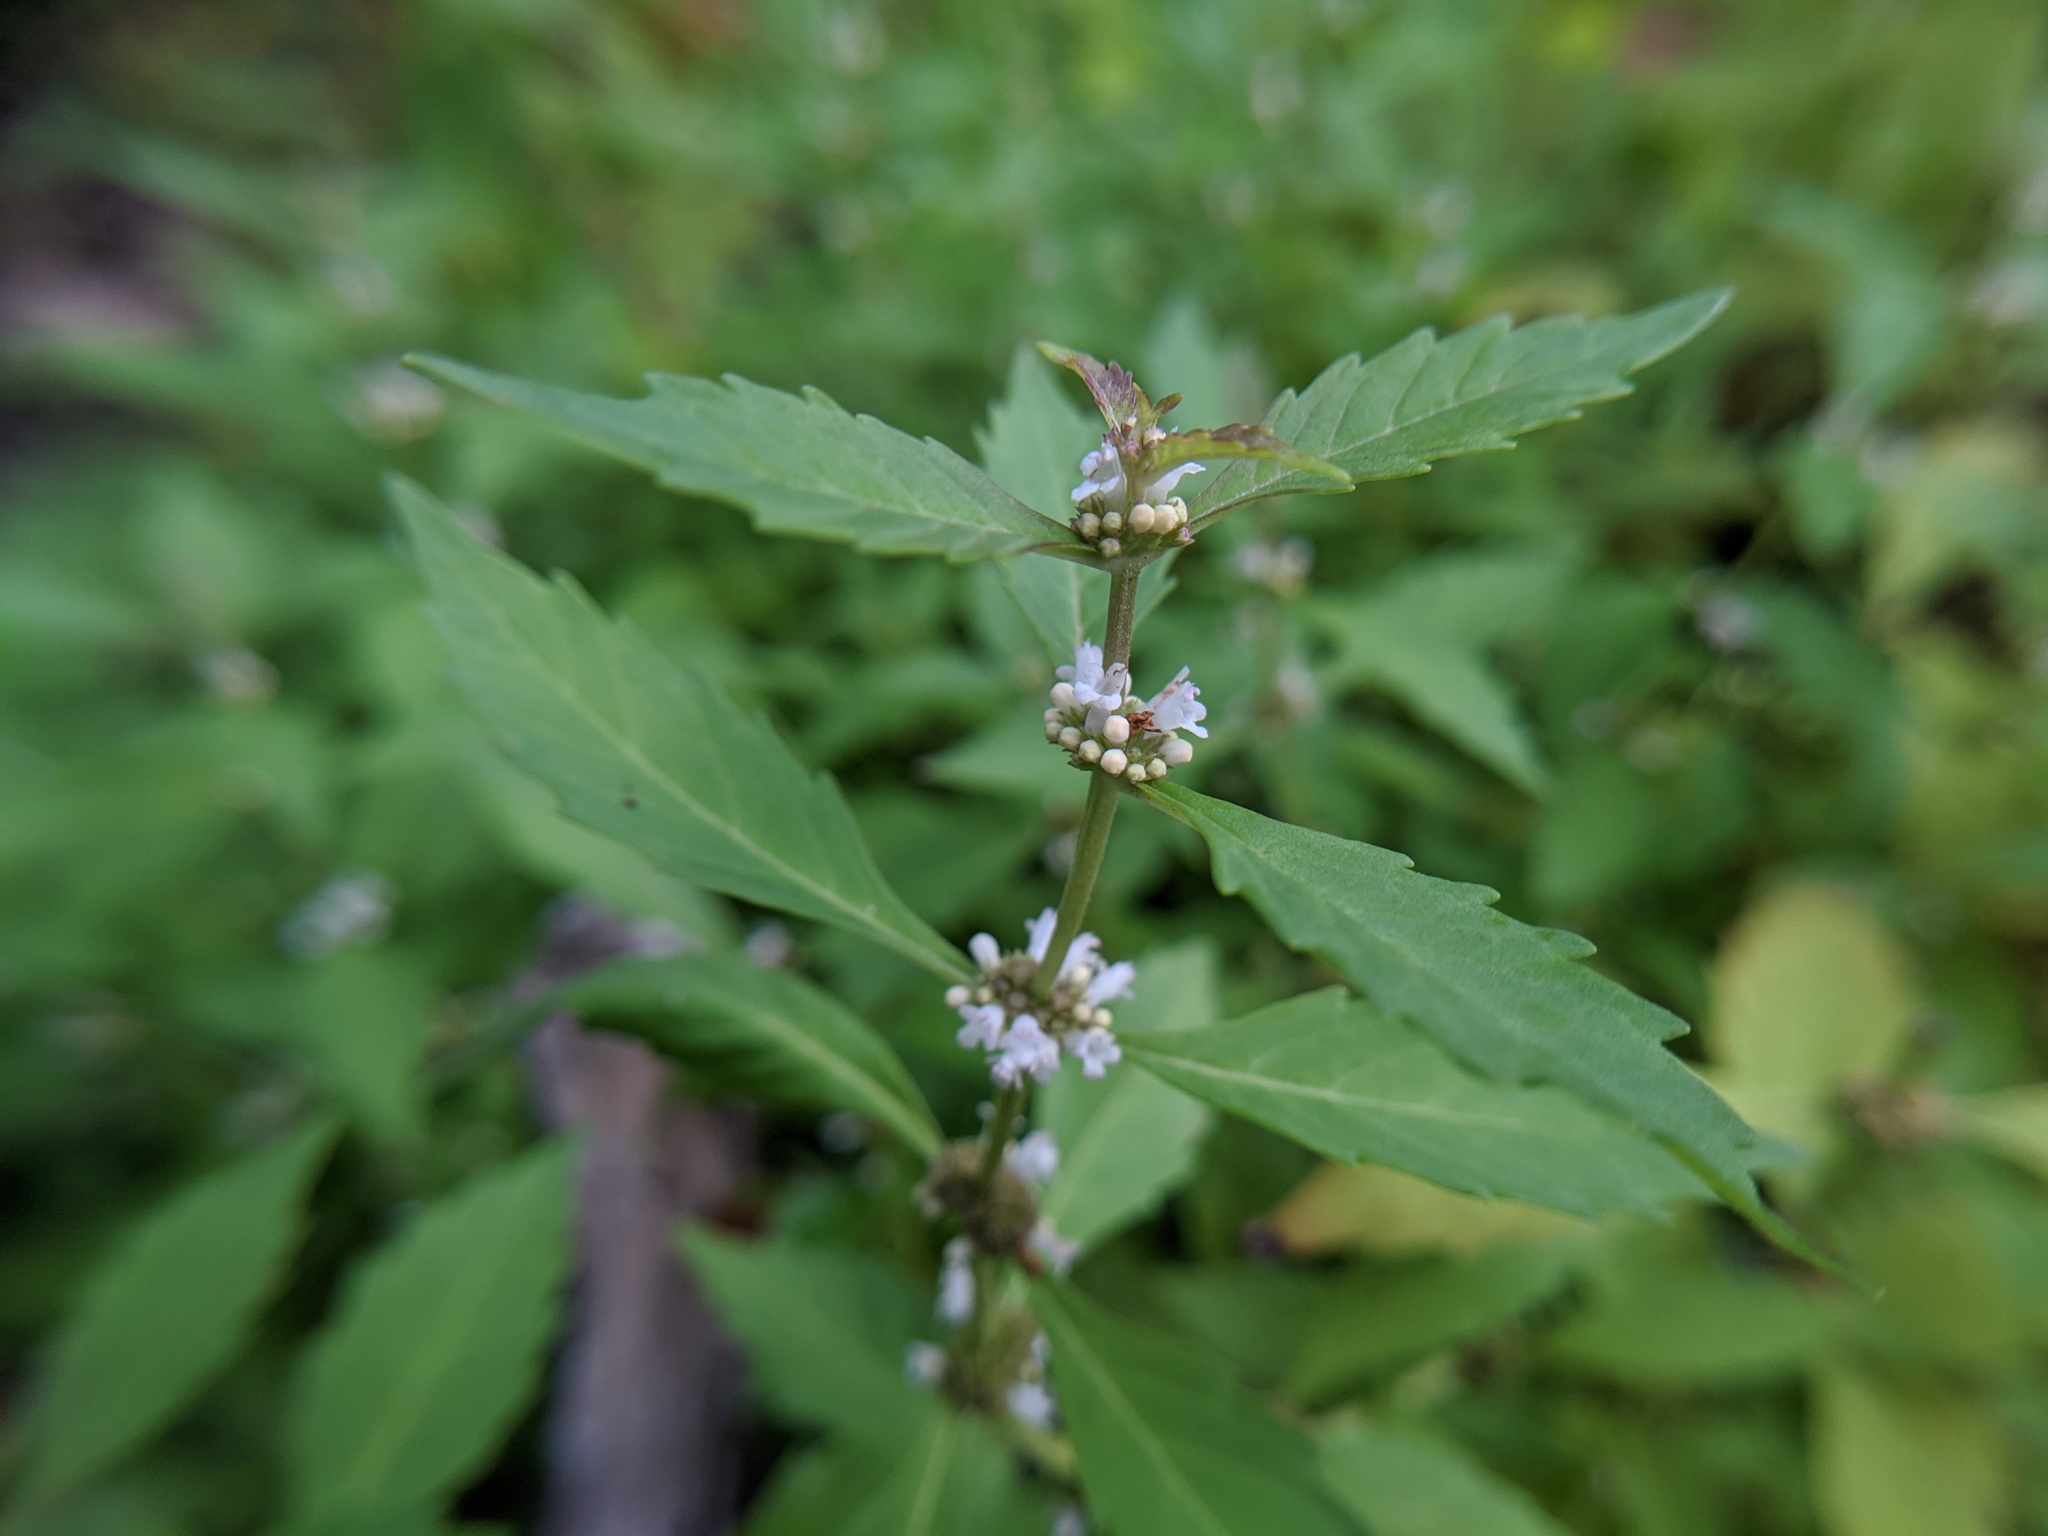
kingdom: Plantae
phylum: Tracheophyta
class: Magnoliopsida
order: Lamiales
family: Lamiaceae
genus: Lycopus
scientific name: Lycopus uniflorus
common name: Northern bugleweed
